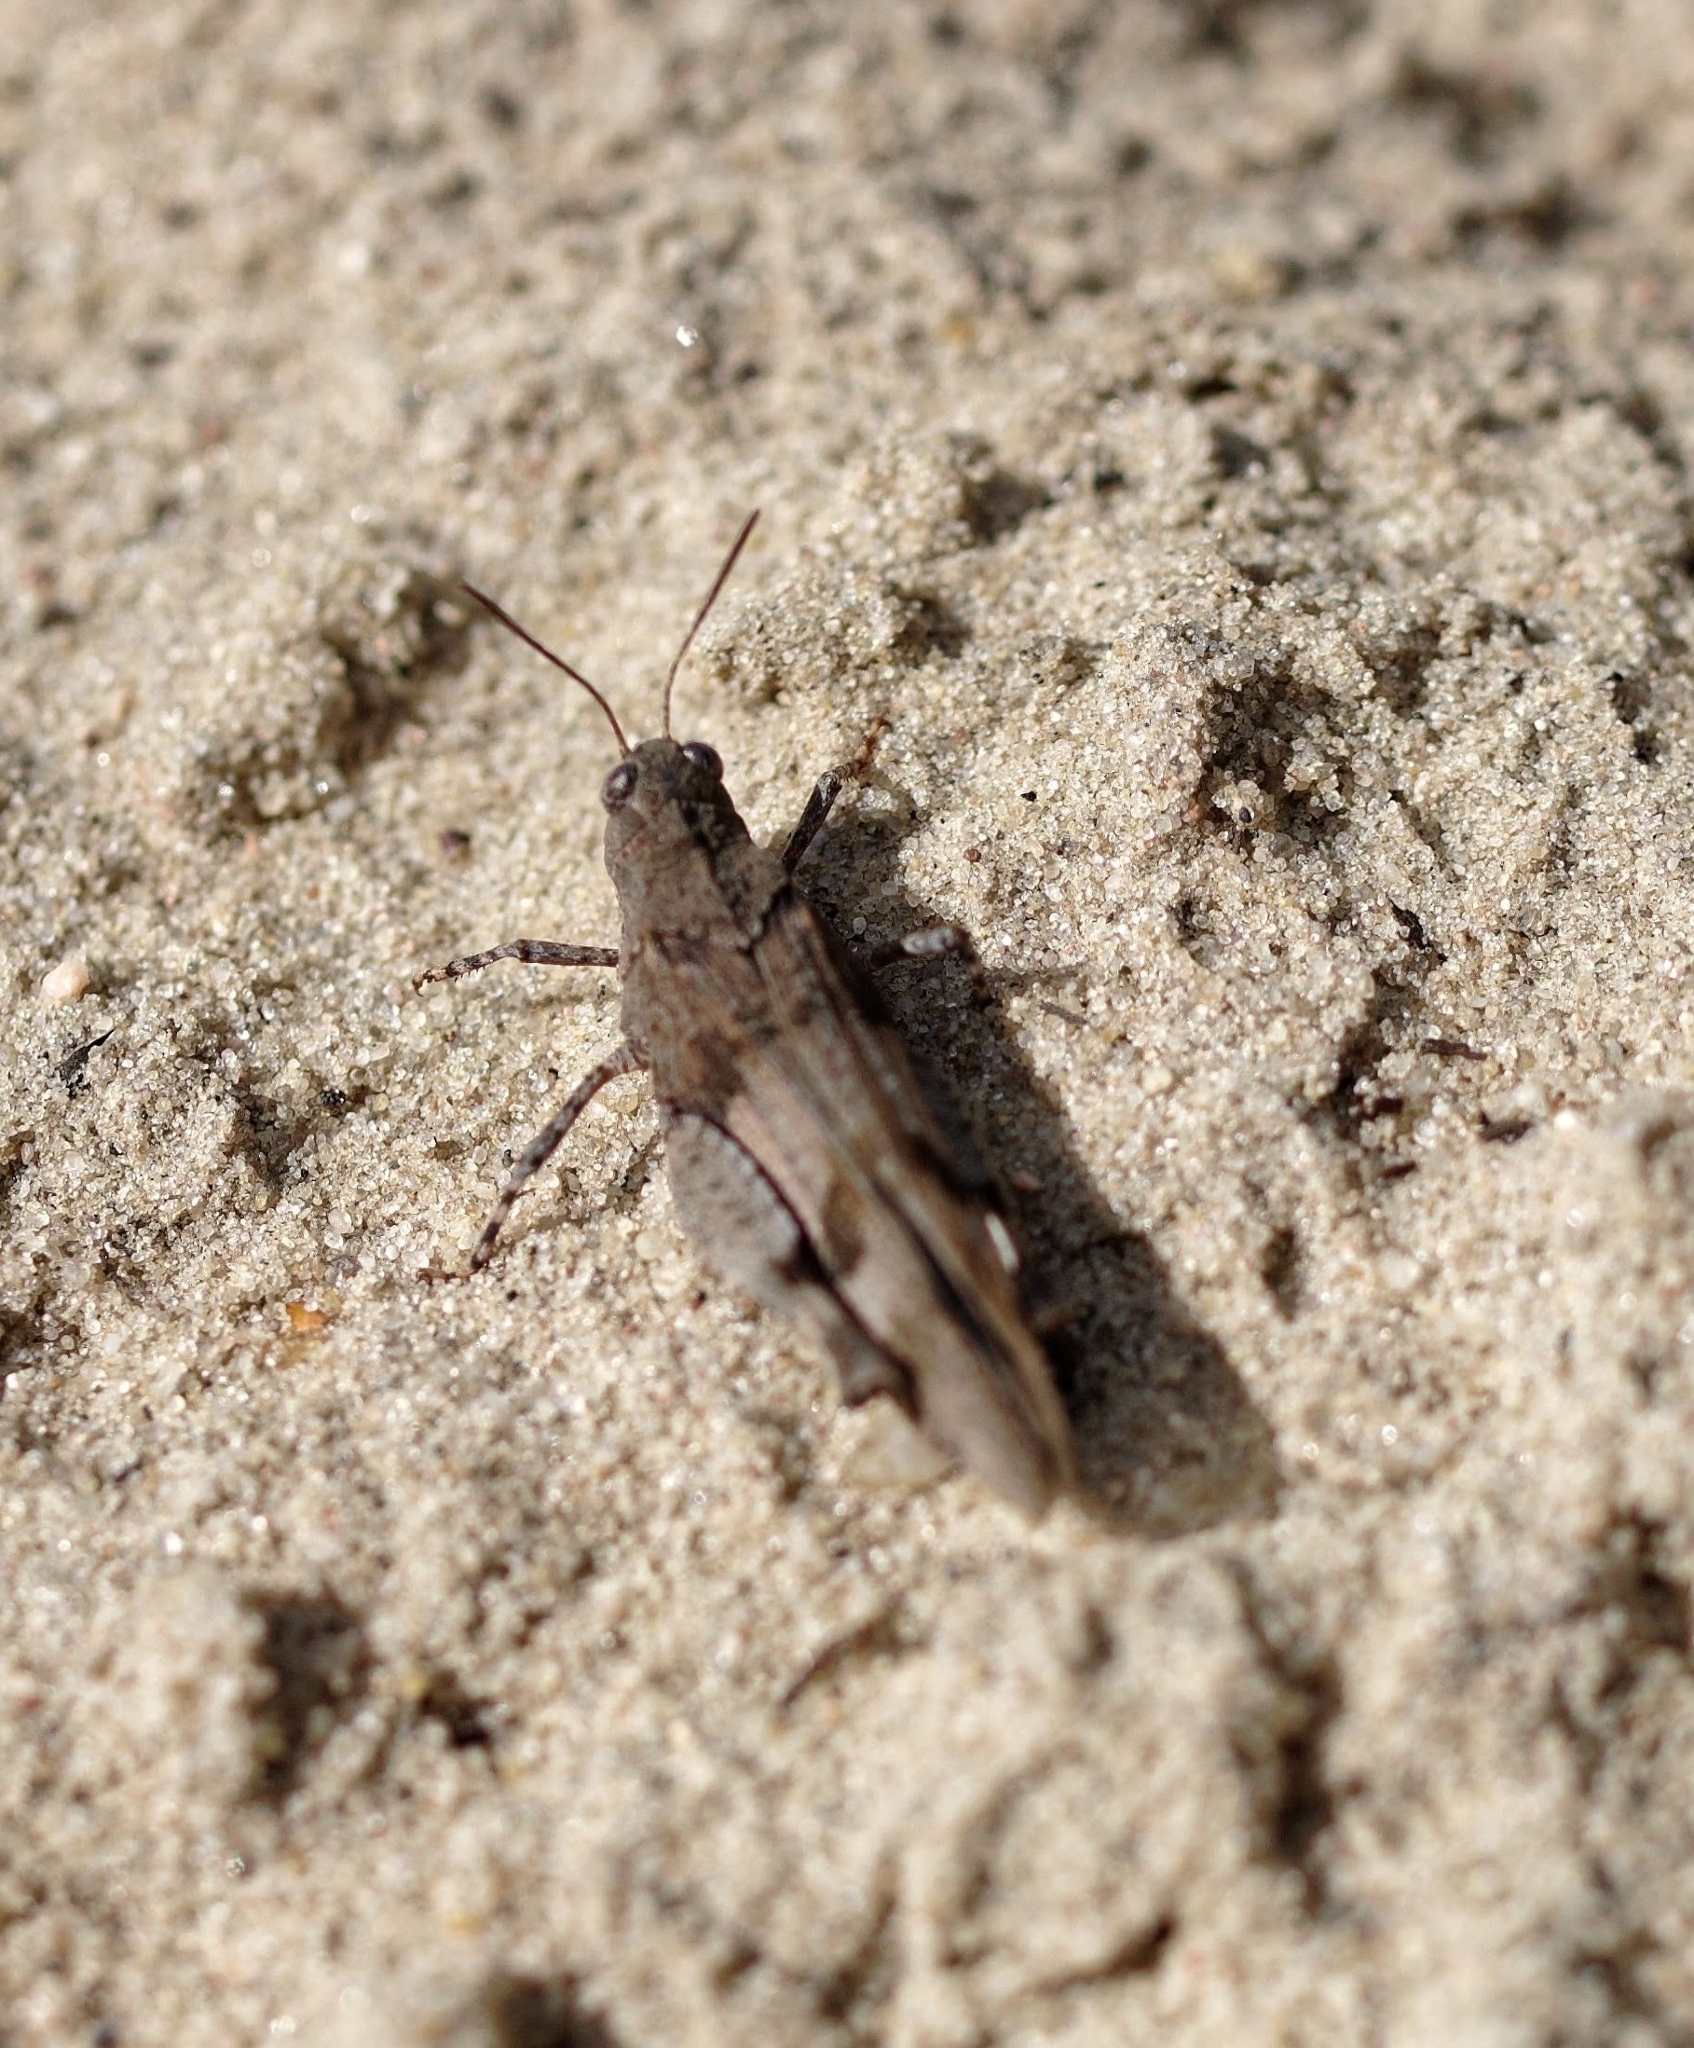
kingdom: Animalia
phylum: Arthropoda
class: Insecta
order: Orthoptera
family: Acrididae
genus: Oedipoda
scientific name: Oedipoda caerulescens
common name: Blue-winged grasshopper
